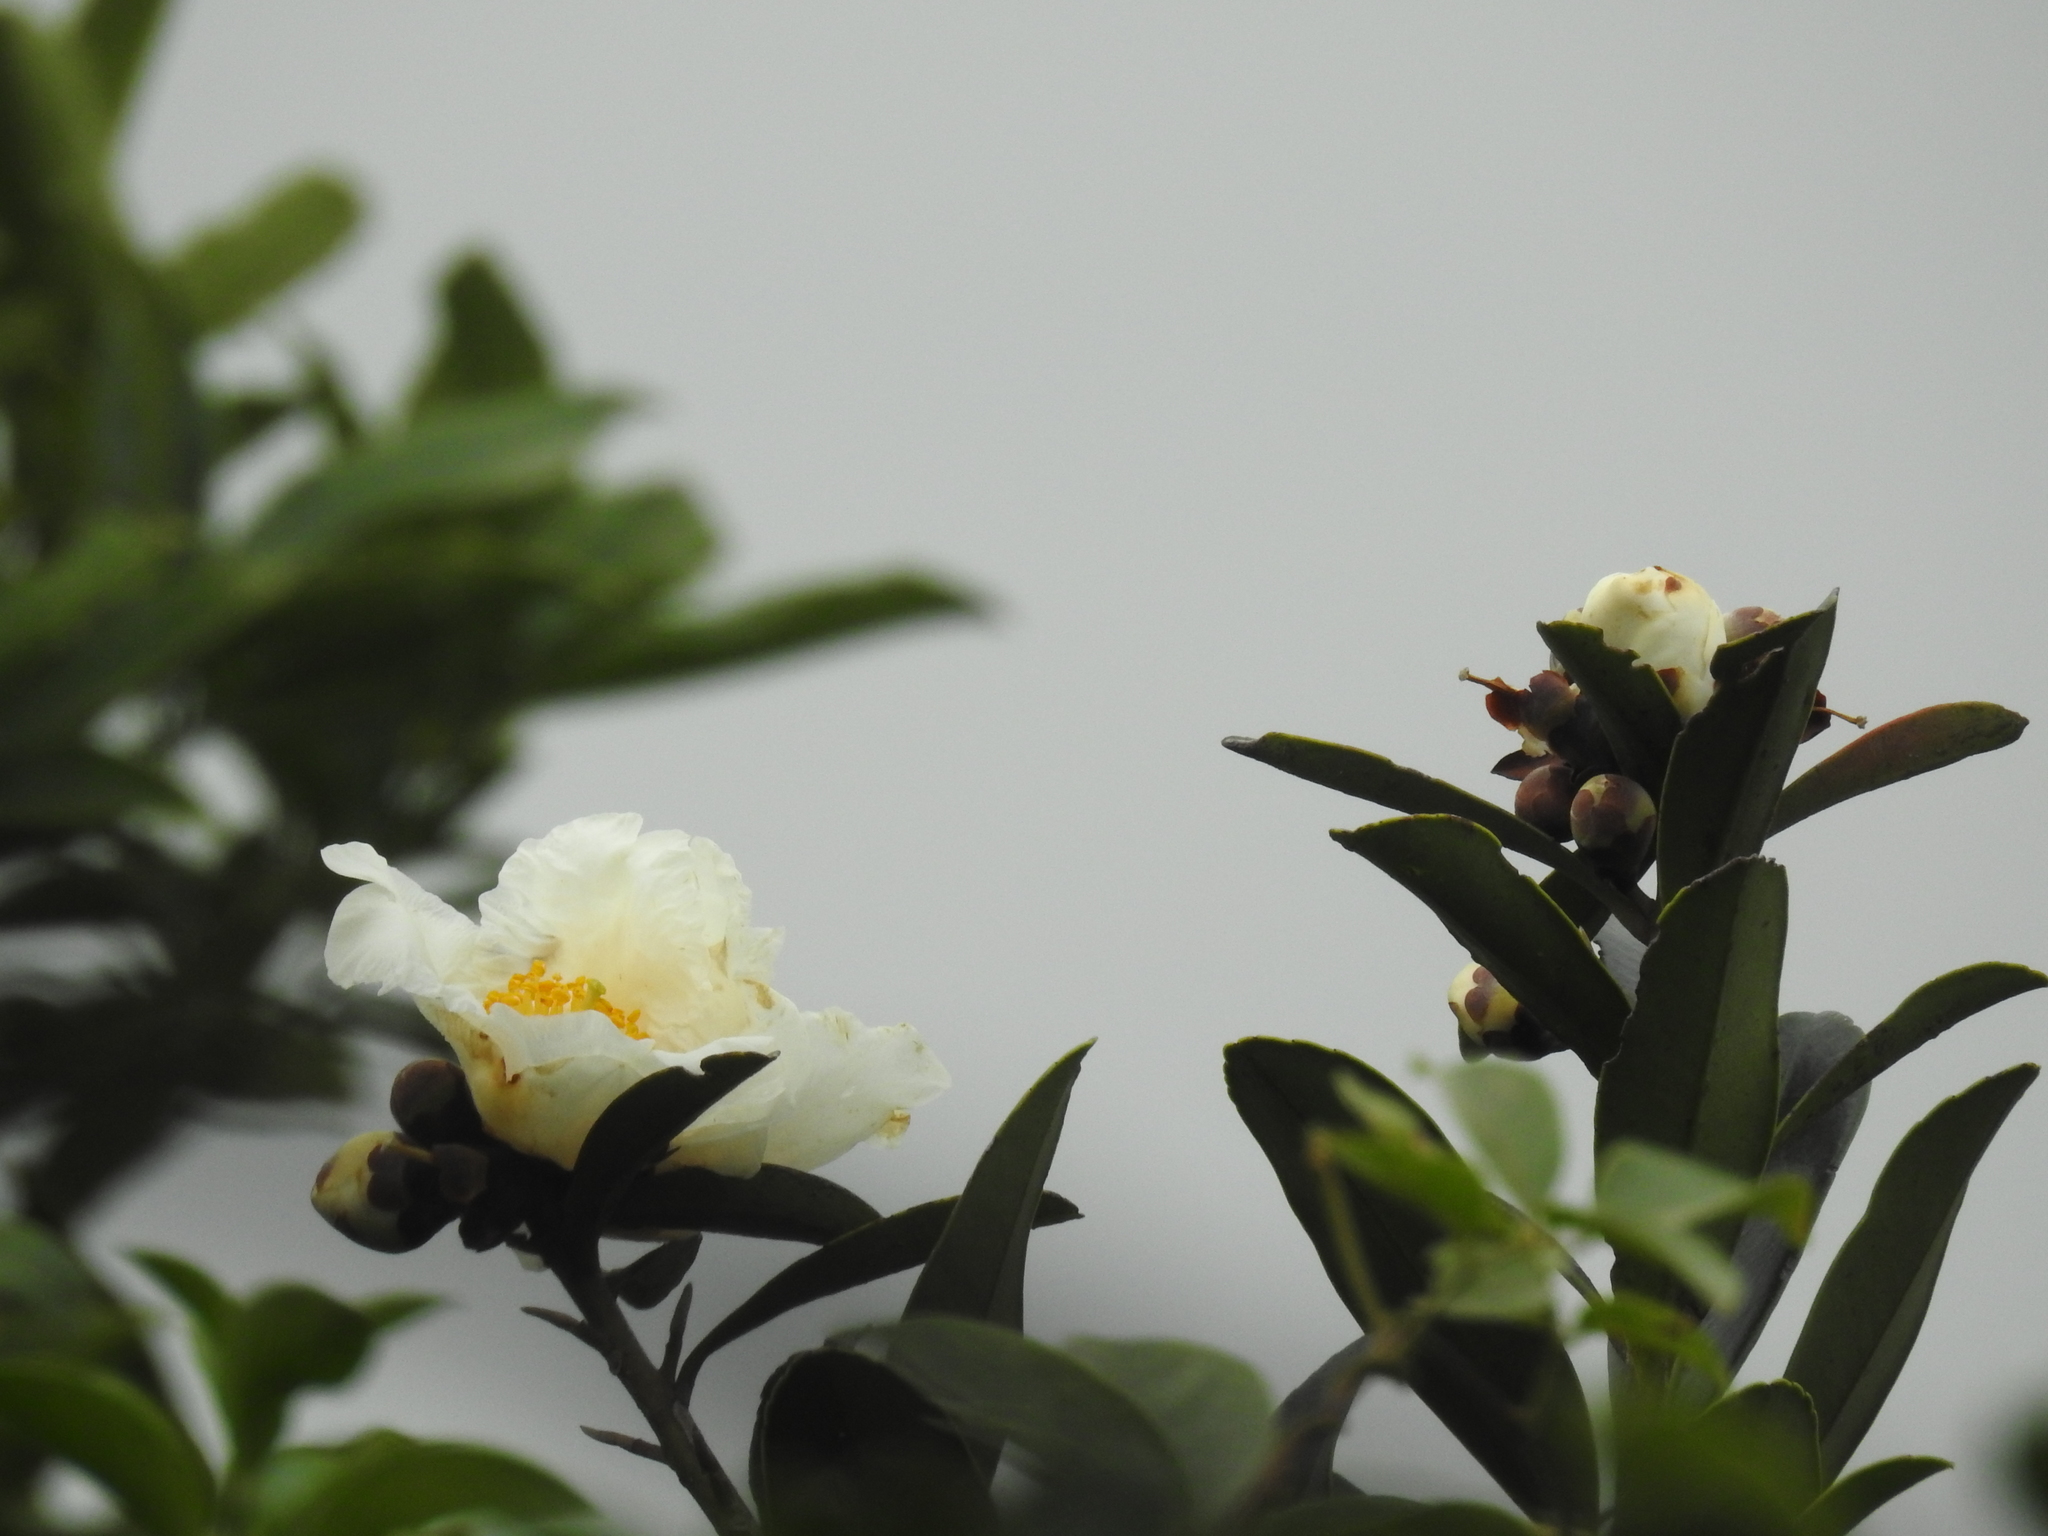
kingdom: Plantae
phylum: Tracheophyta
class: Magnoliopsida
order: Ericales
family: Theaceae
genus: Polyspora
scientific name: Polyspora axillaris
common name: Fried egg tree
